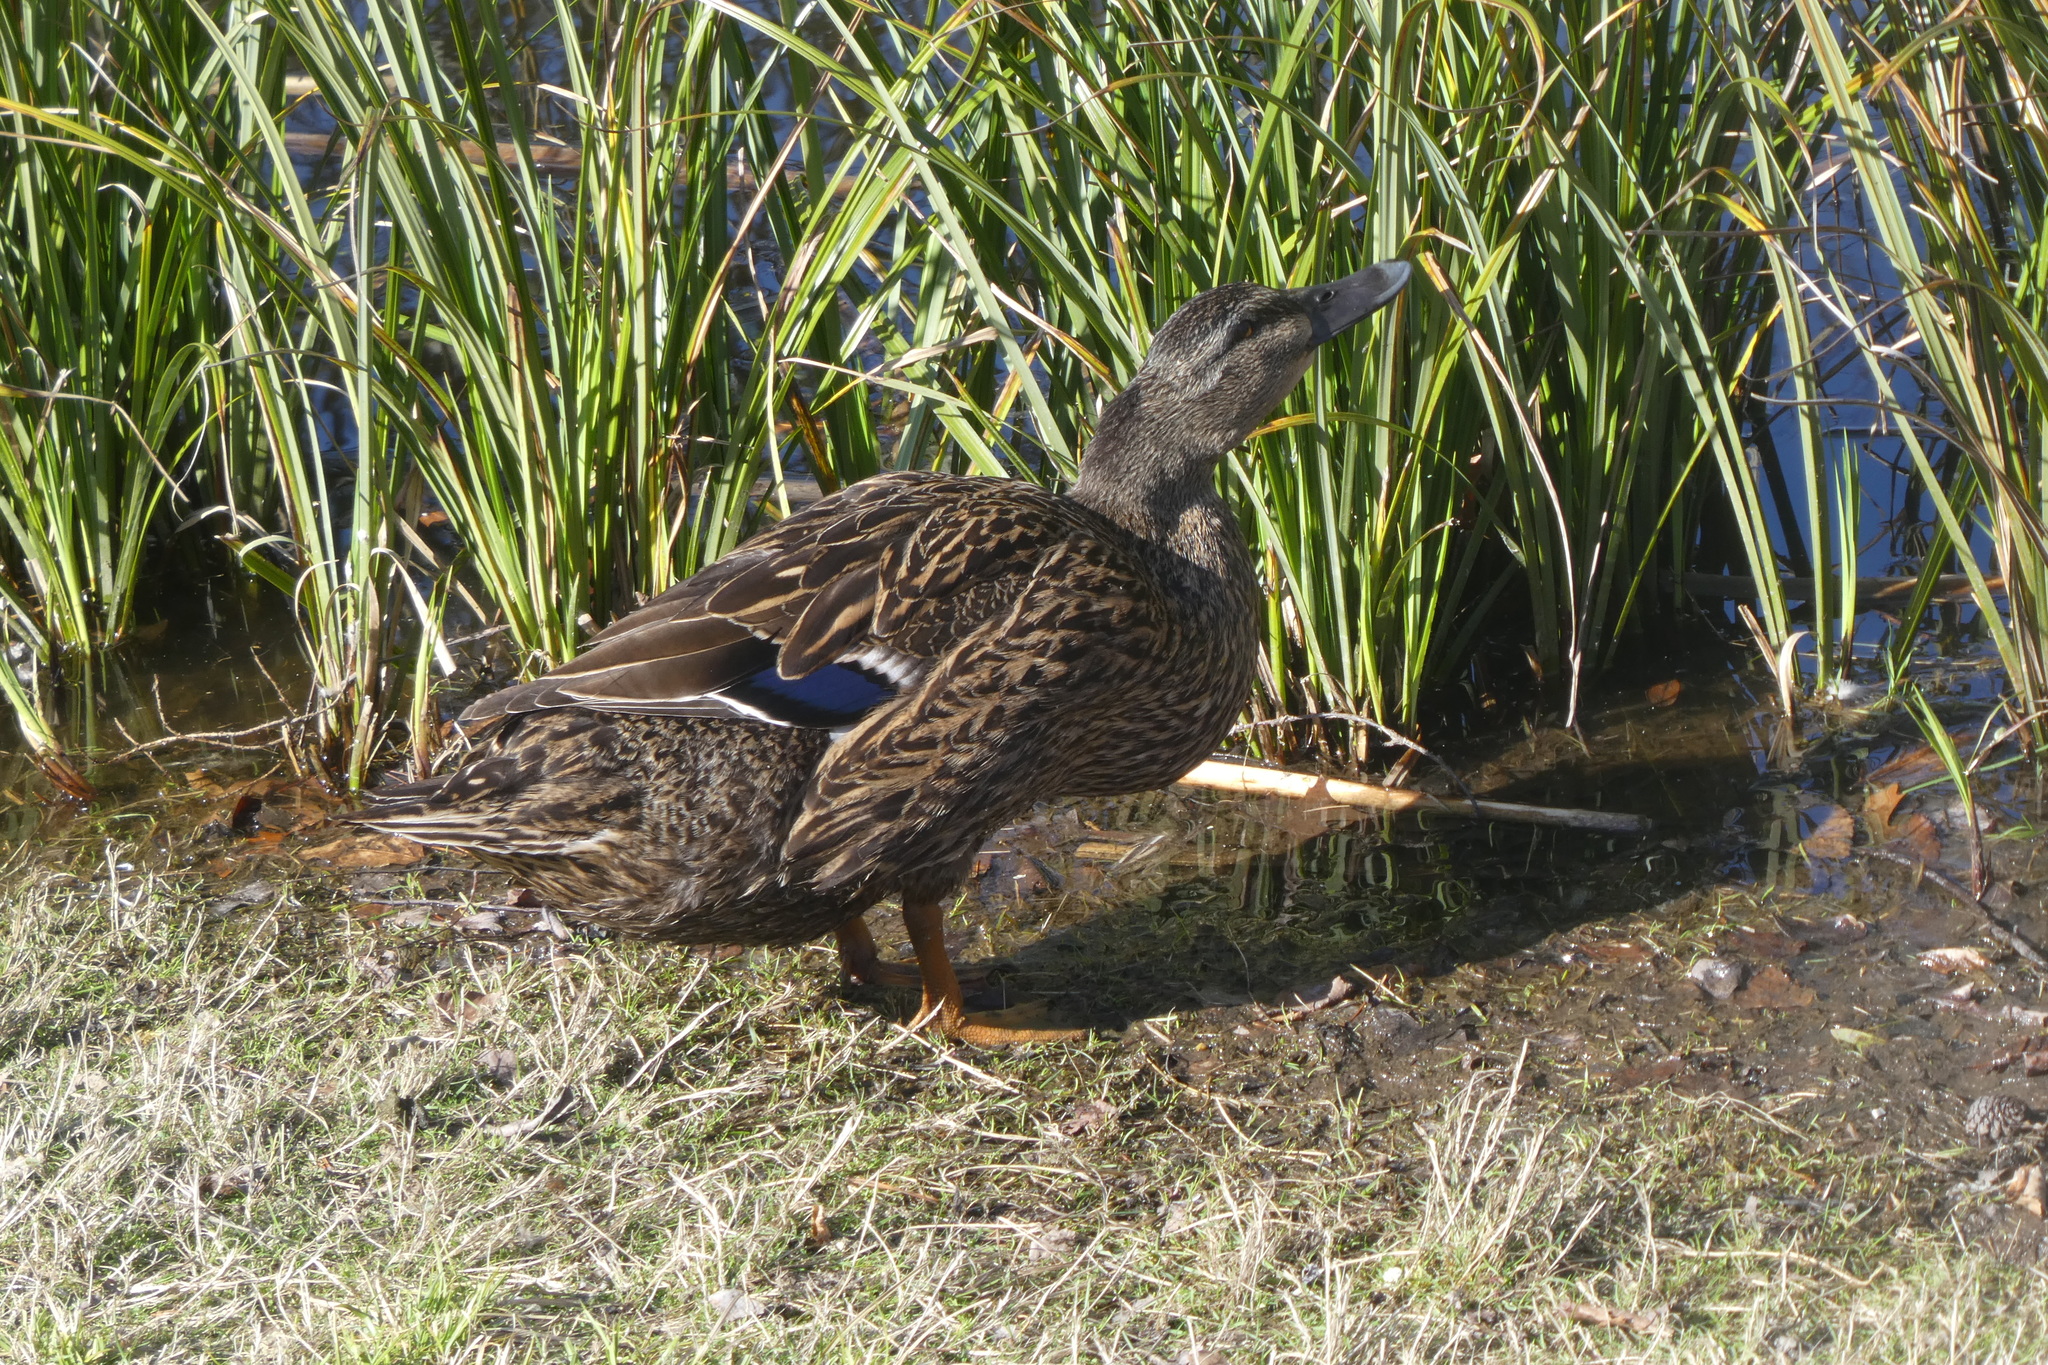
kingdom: Animalia
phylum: Chordata
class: Aves
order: Anseriformes
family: Anatidae
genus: Anas
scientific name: Anas platyrhynchos
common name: Mallard
